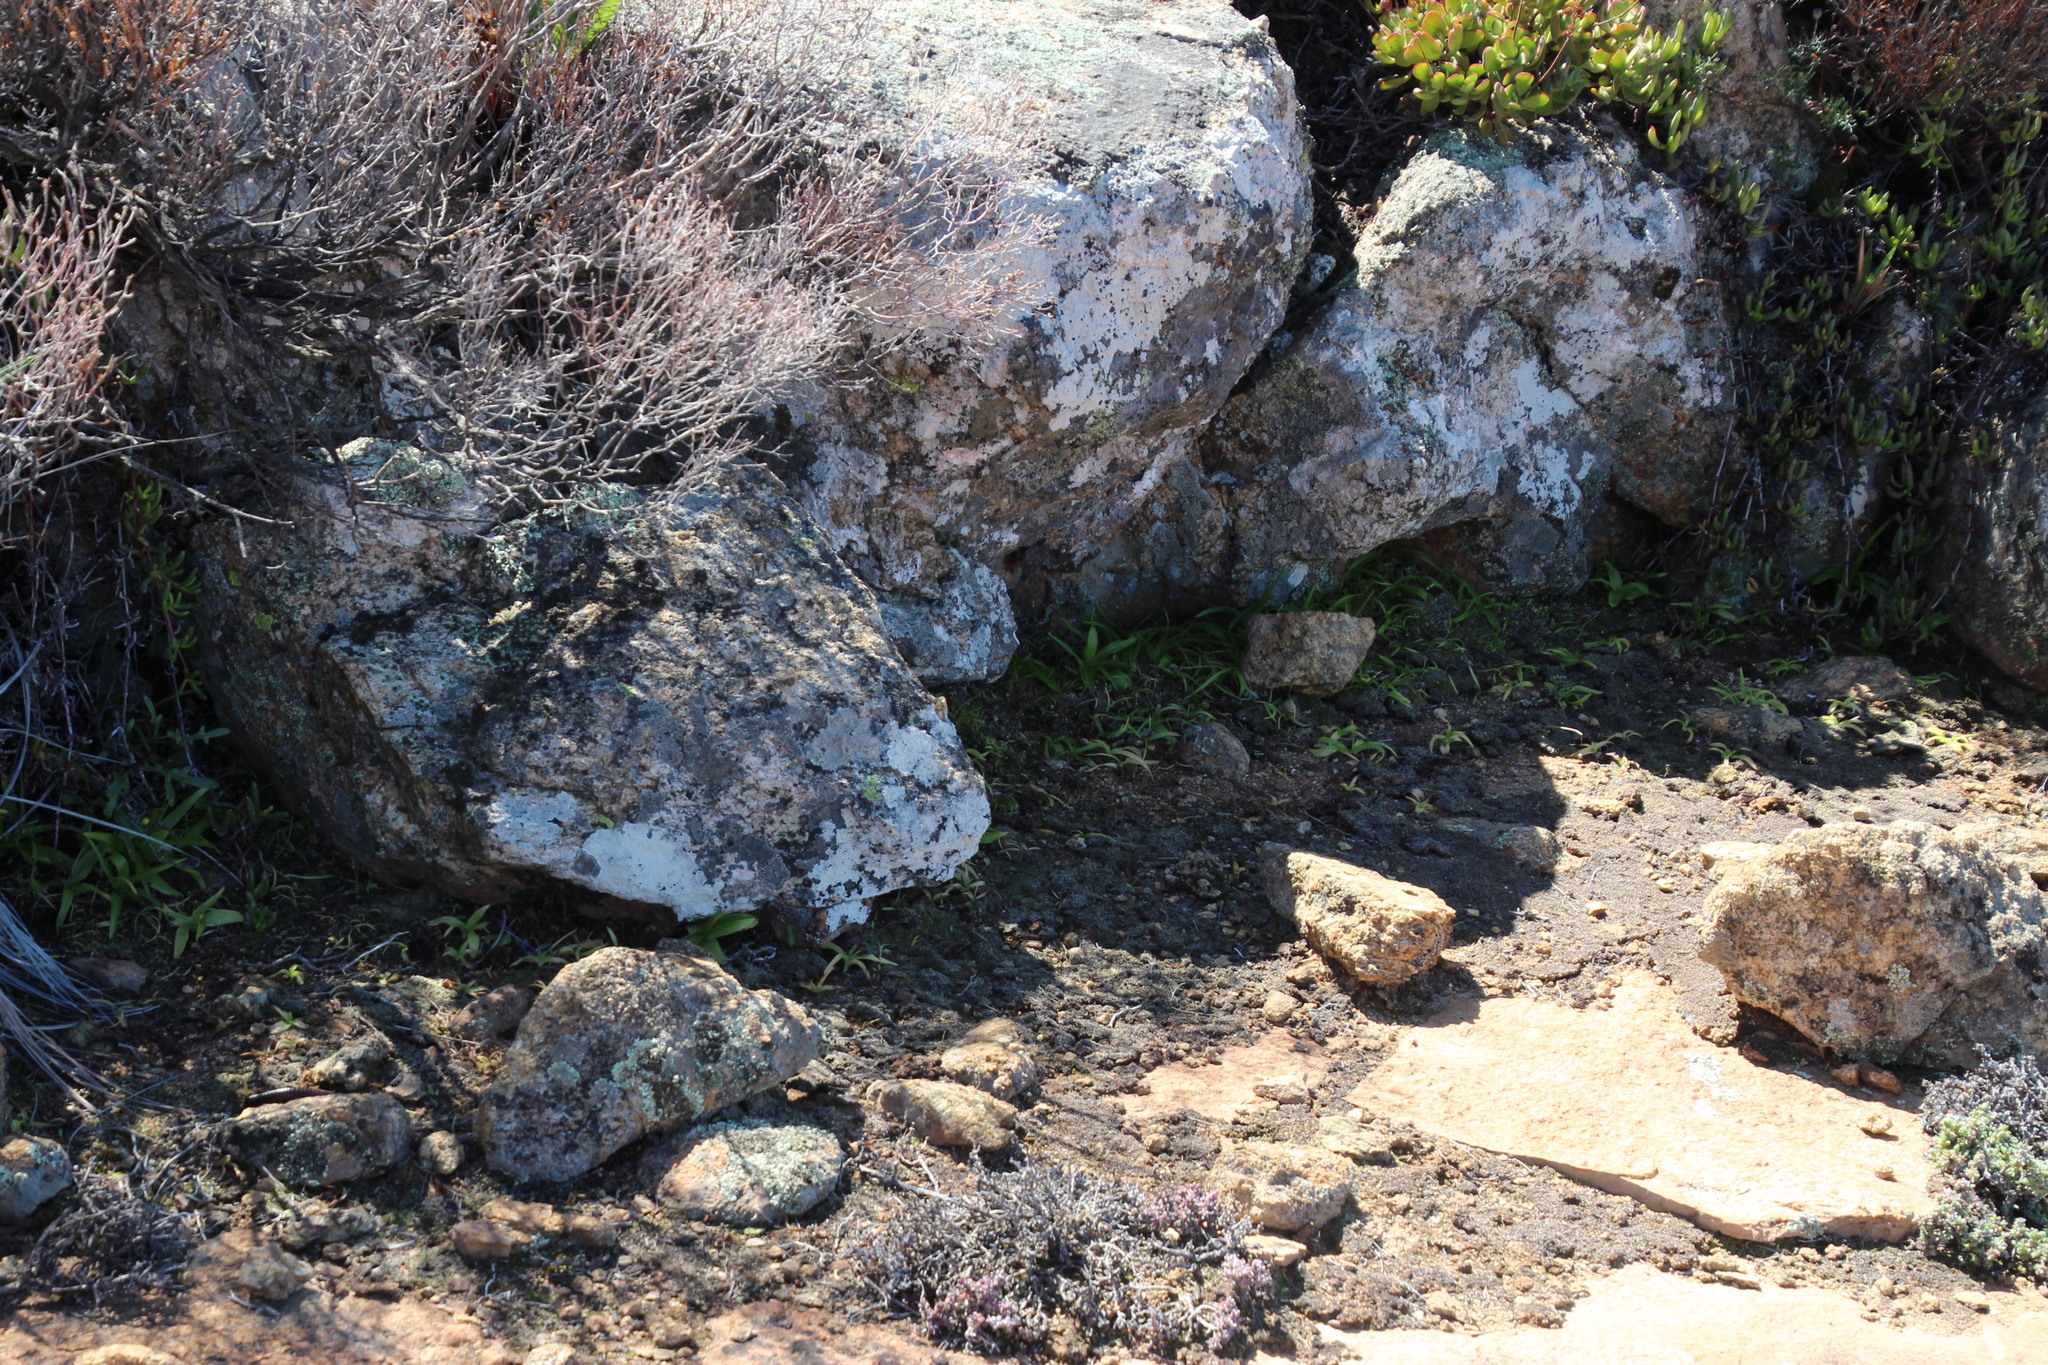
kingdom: Plantae
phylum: Tracheophyta
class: Liliopsida
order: Asparagales
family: Hypoxidaceae
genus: Pauridia
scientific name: Pauridia gracilipes
